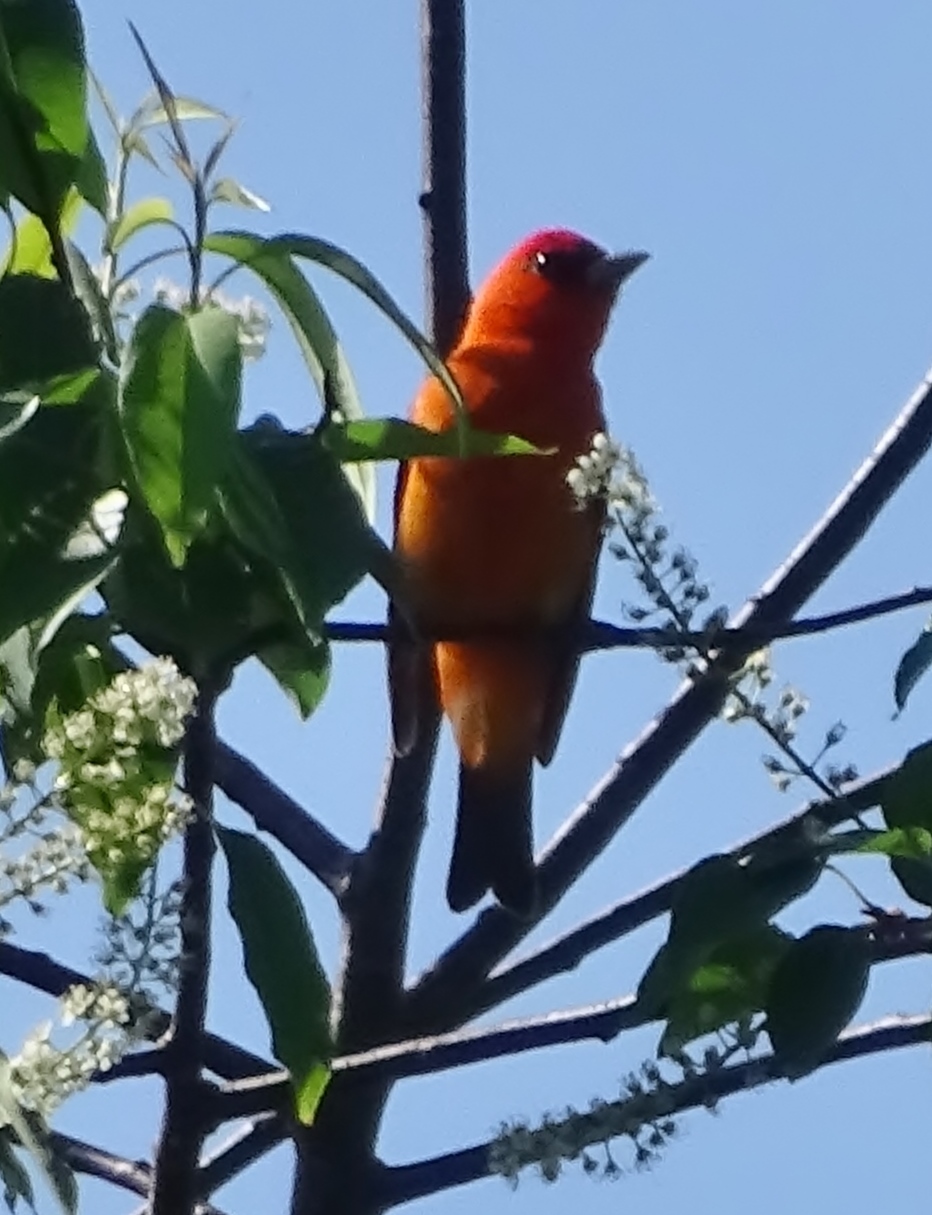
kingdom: Animalia
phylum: Chordata
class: Aves
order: Passeriformes
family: Cardinalidae
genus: Piranga
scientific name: Piranga olivacea
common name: Scarlet tanager
